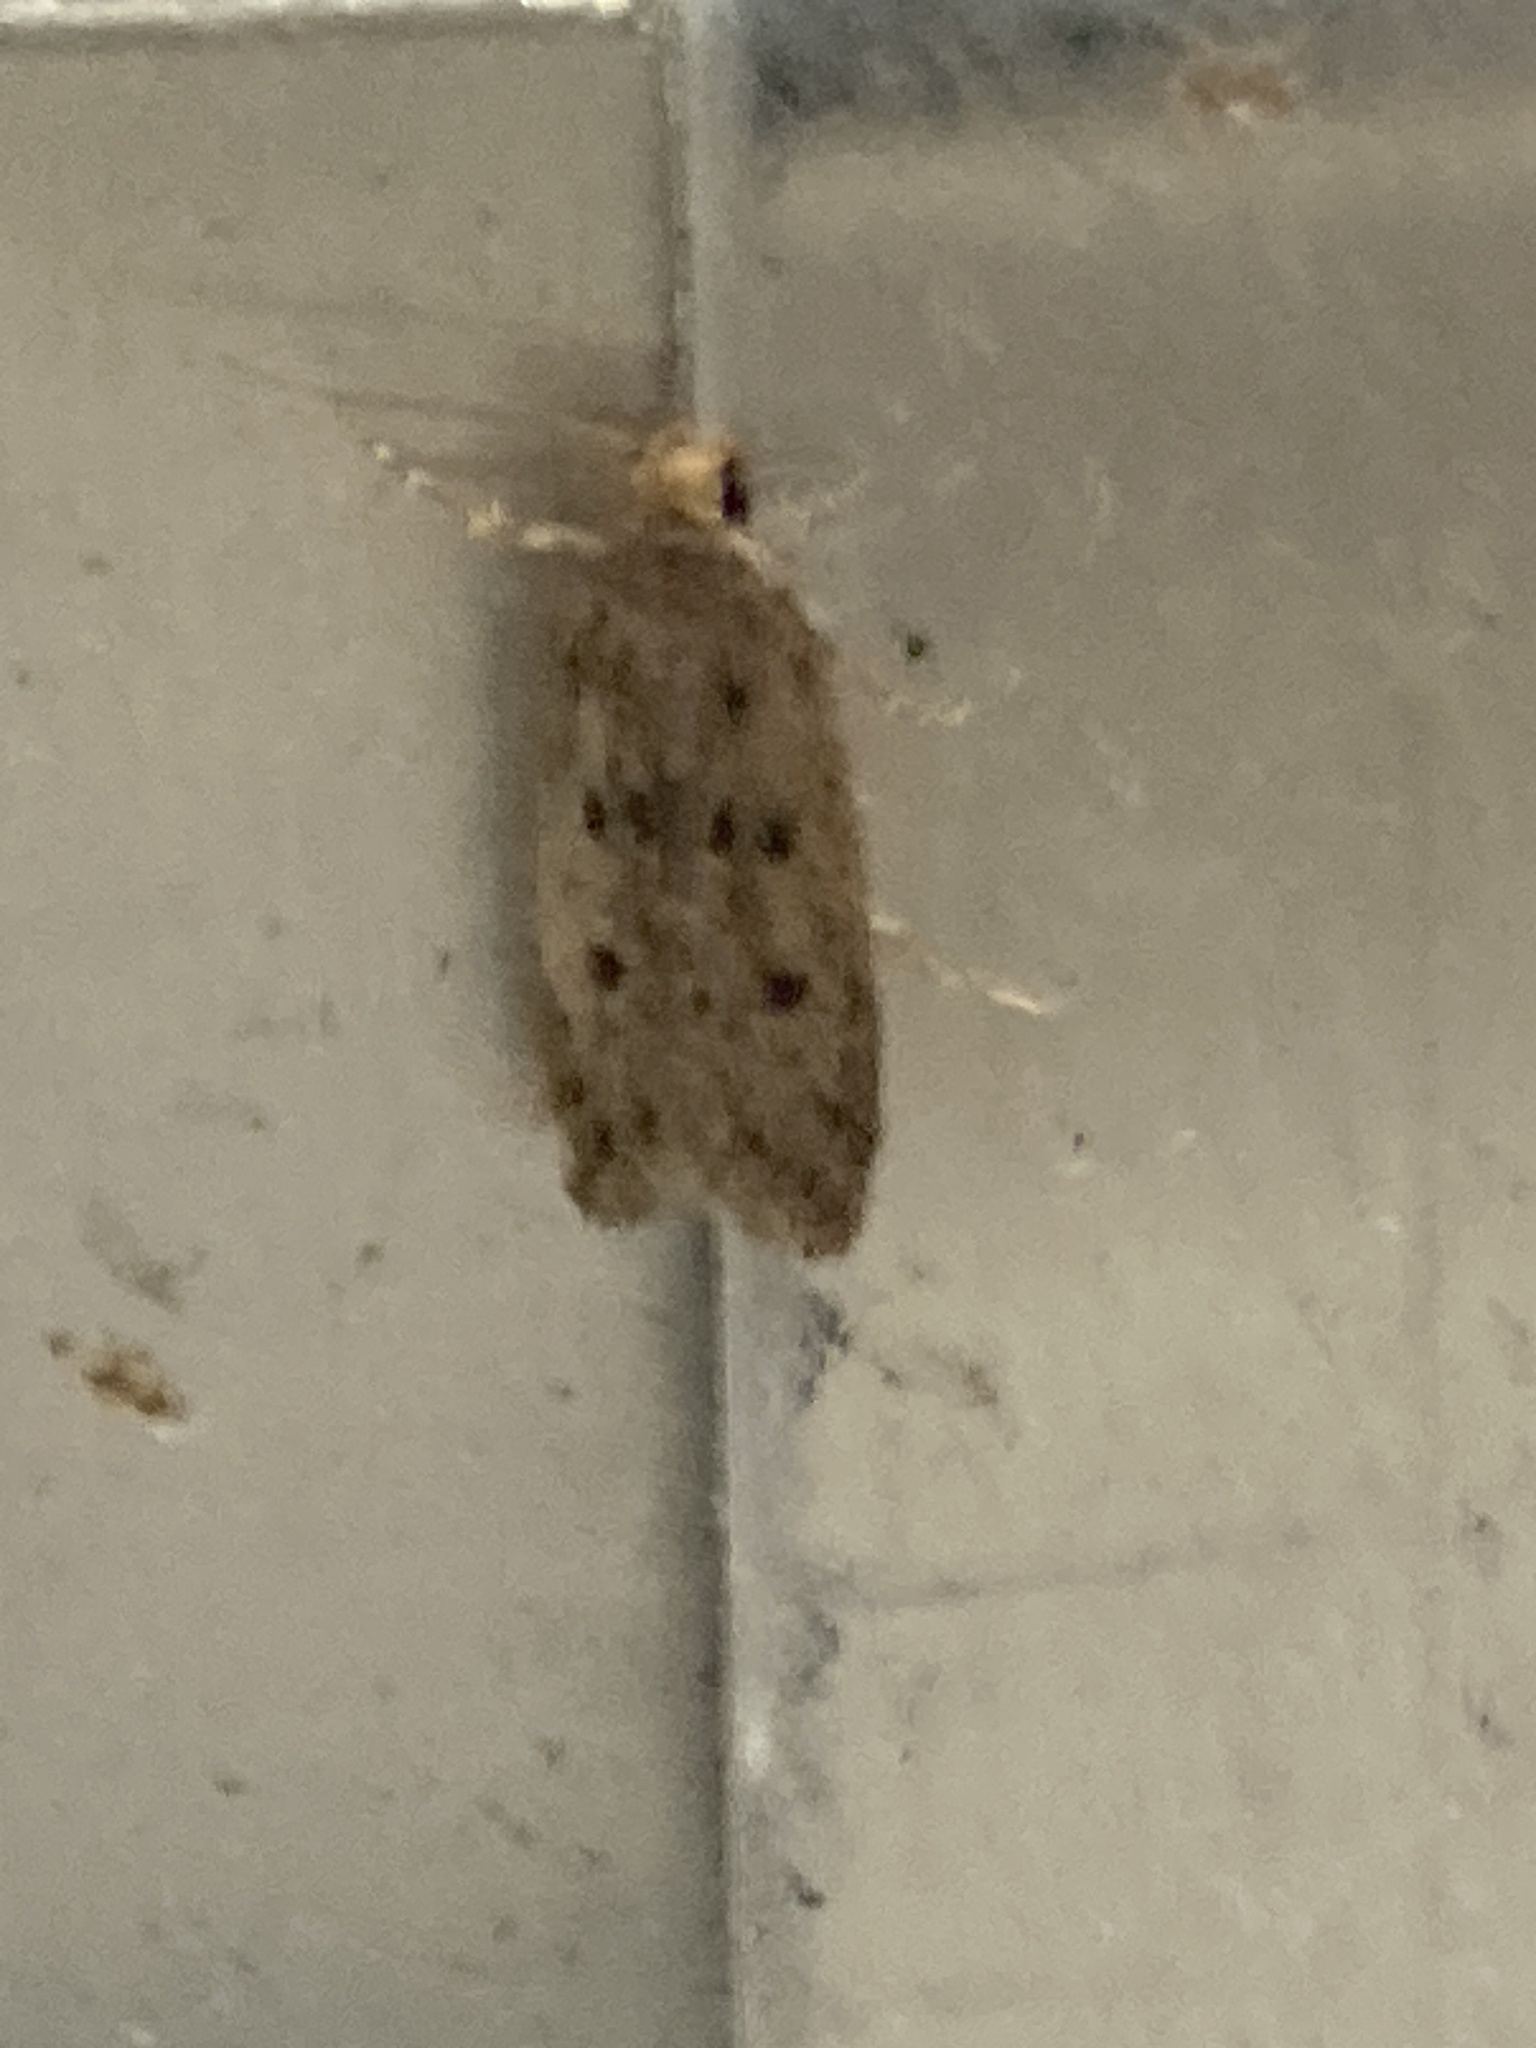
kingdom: Animalia
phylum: Arthropoda
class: Insecta
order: Lepidoptera
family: Oecophoridae
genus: Hofmannophila
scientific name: Hofmannophila pseudospretella
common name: Brown house moth
